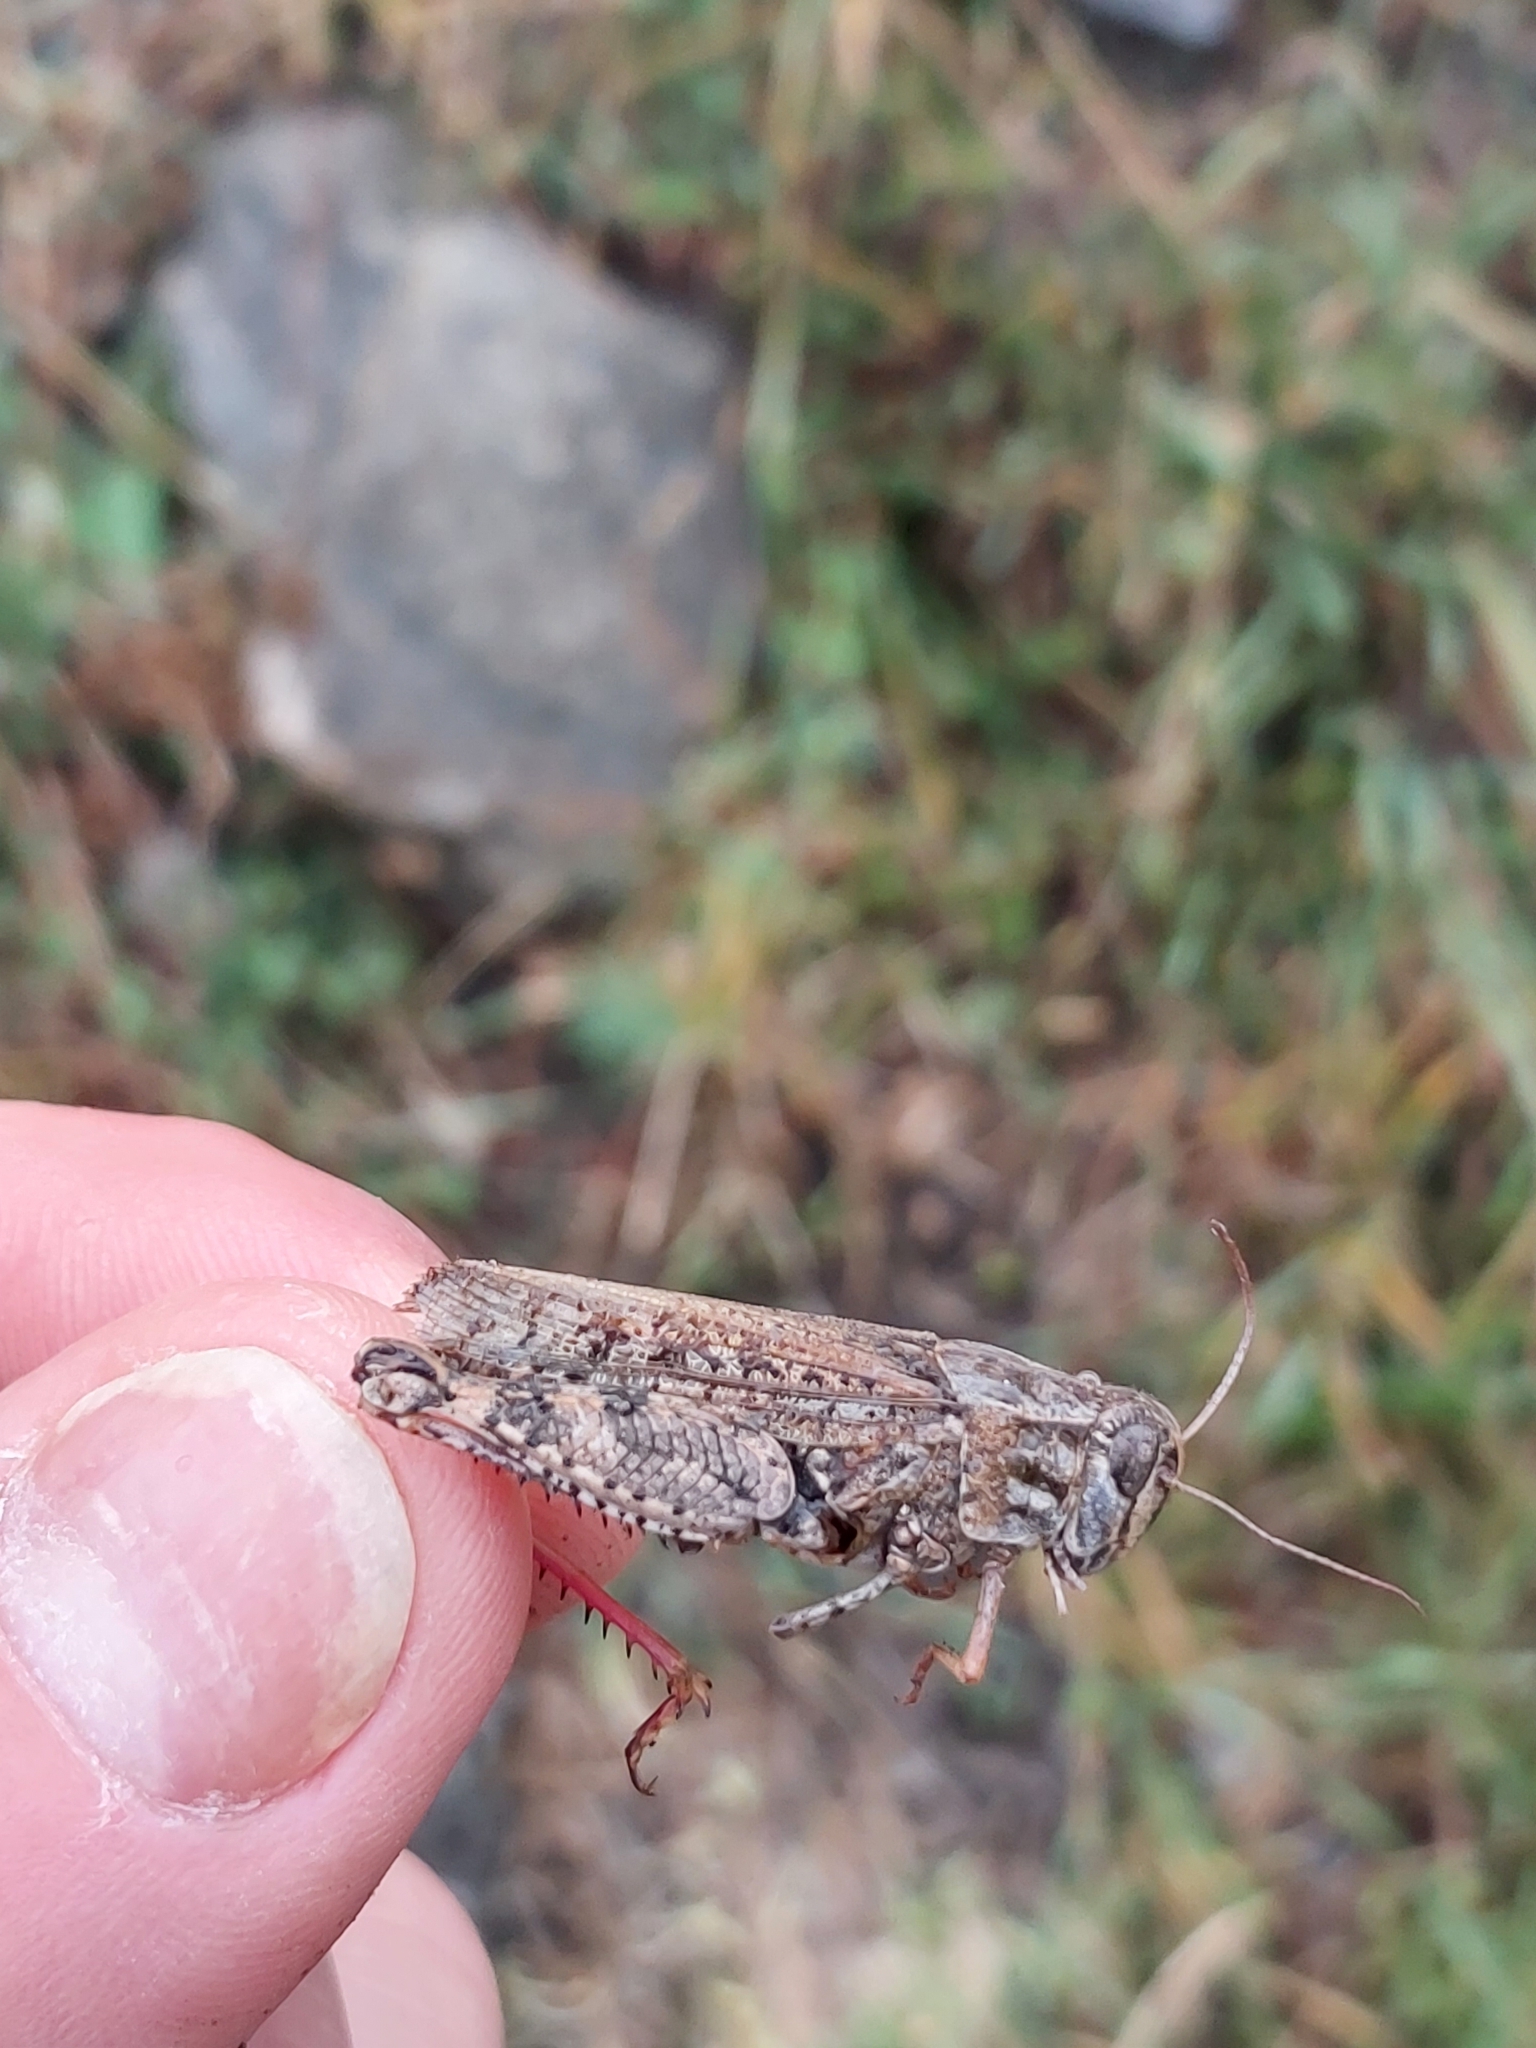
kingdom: Animalia
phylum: Arthropoda
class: Insecta
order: Orthoptera
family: Acrididae
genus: Calliptamus
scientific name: Calliptamus italicus
